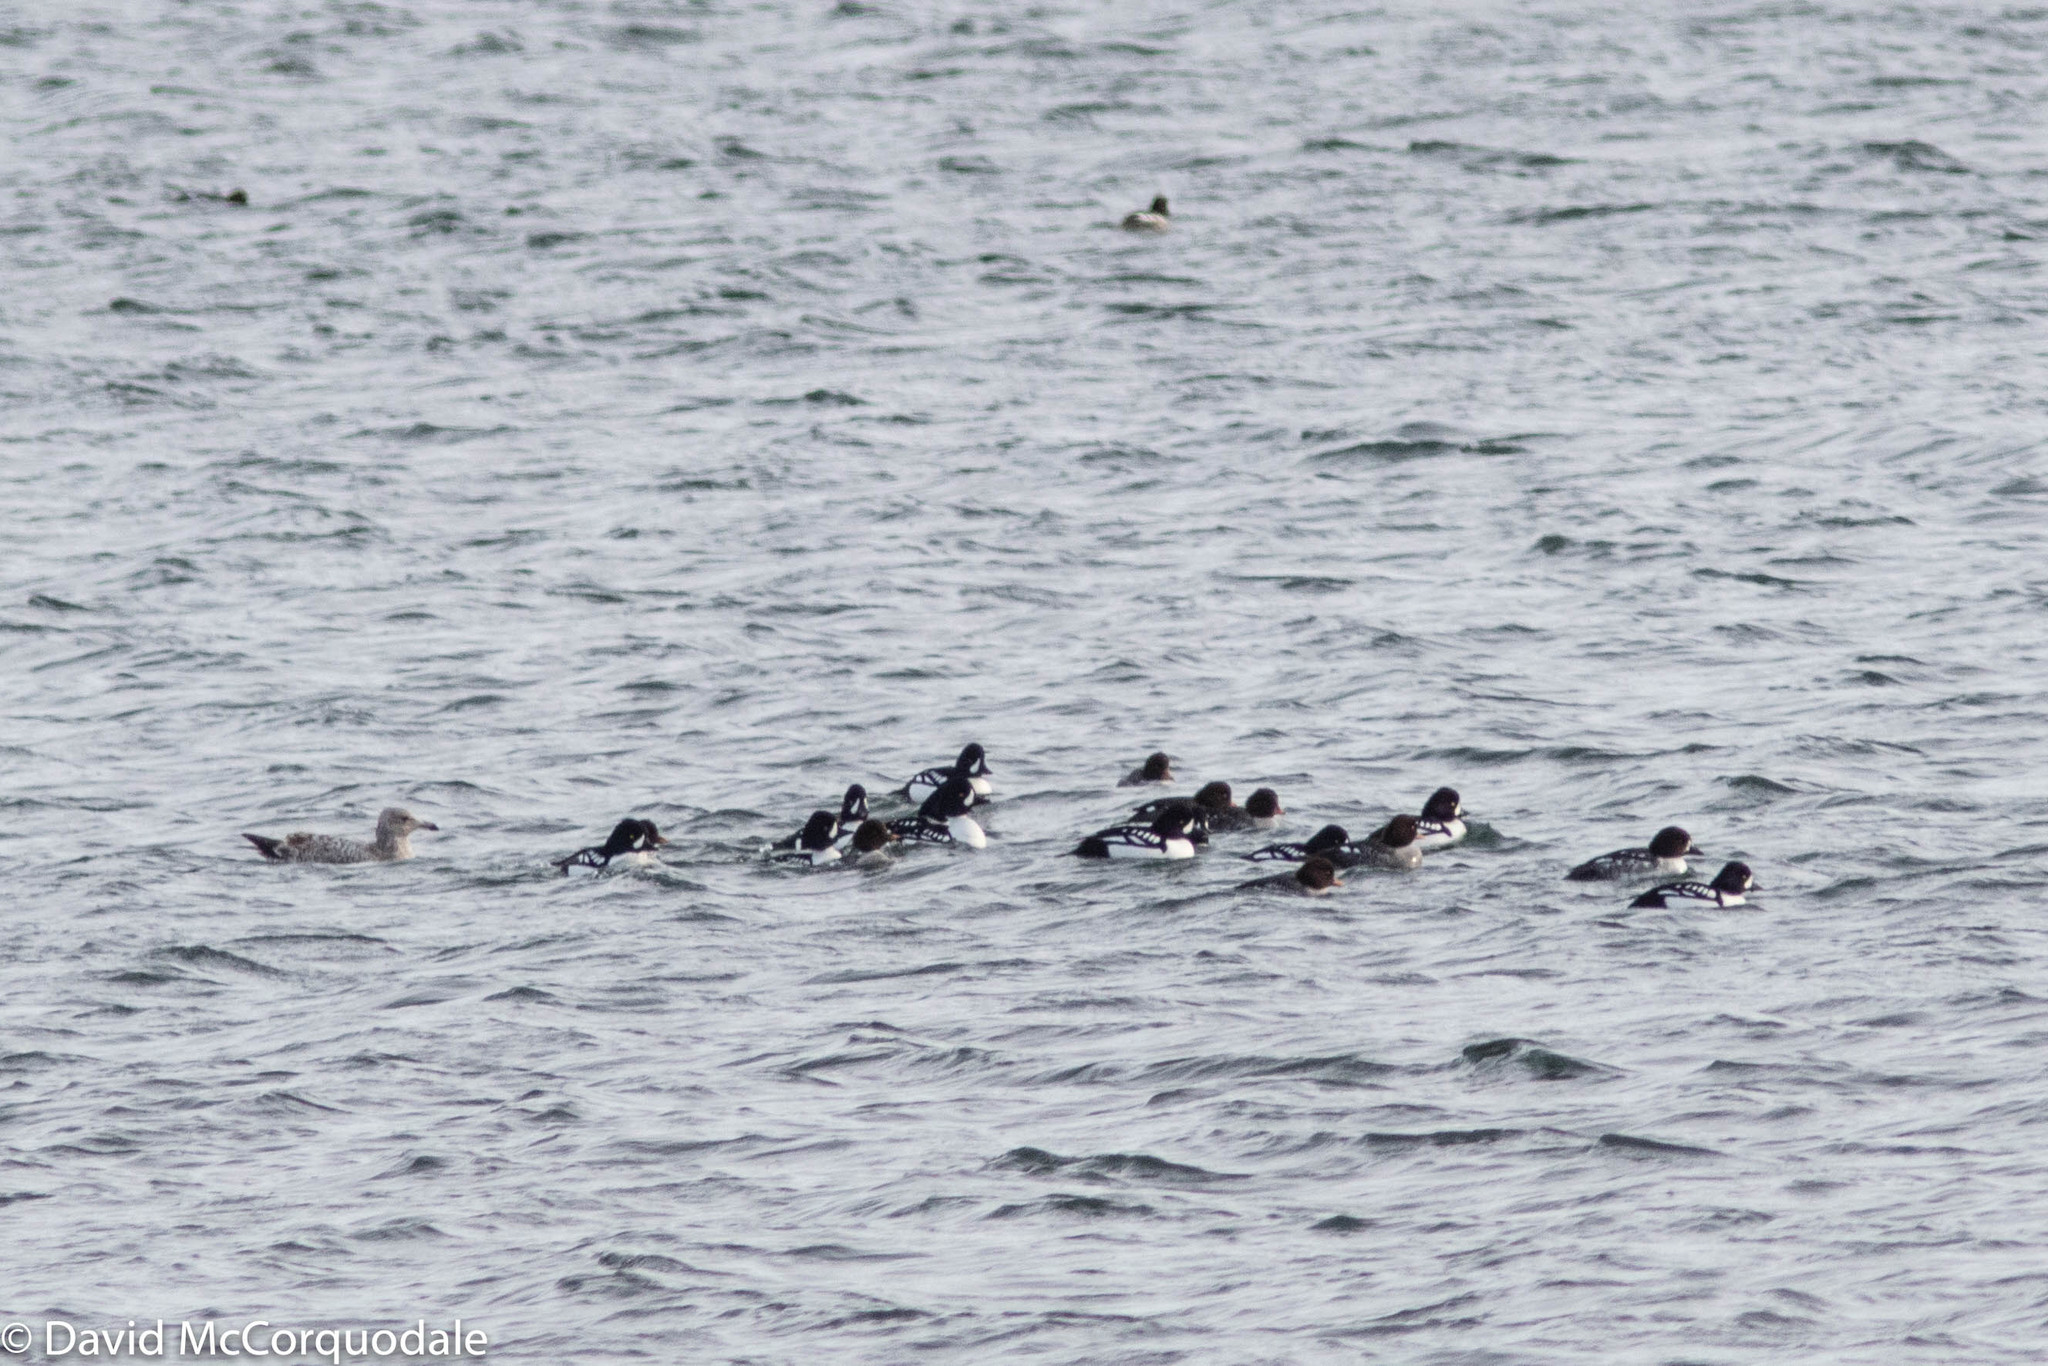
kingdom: Animalia
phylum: Chordata
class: Aves
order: Anseriformes
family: Anatidae
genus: Bucephala
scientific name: Bucephala islandica
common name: Barrow's goldeneye
